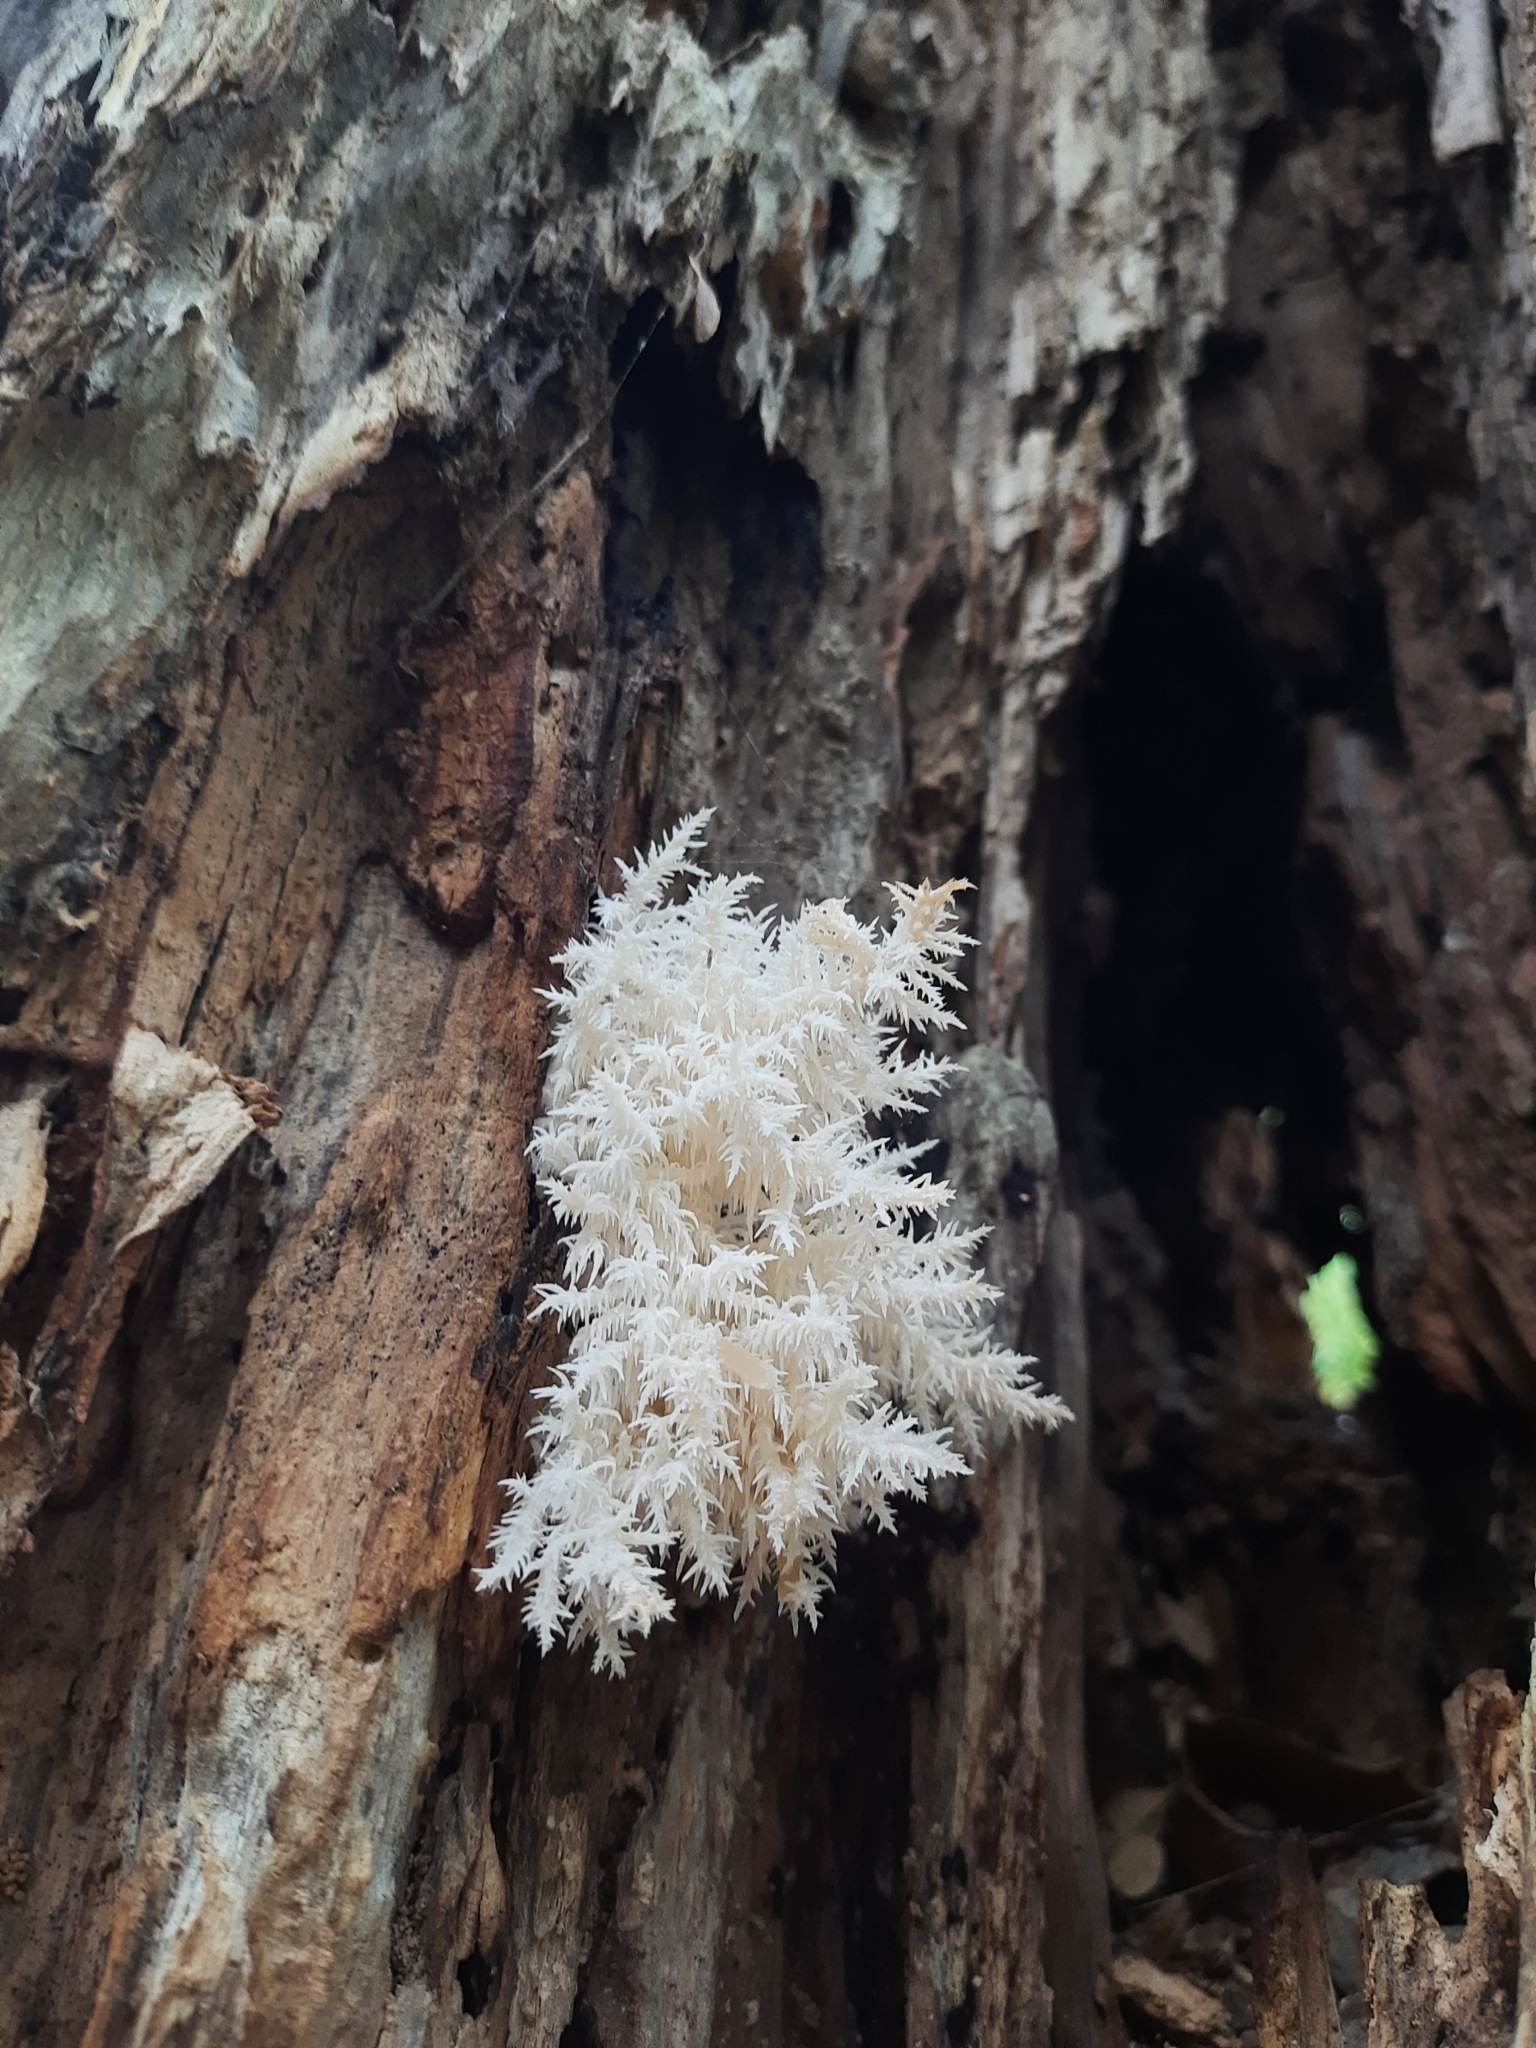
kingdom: Fungi
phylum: Basidiomycota
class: Agaricomycetes
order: Russulales
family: Hericiaceae
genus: Hericium
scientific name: Hericium novae-zealandiae
